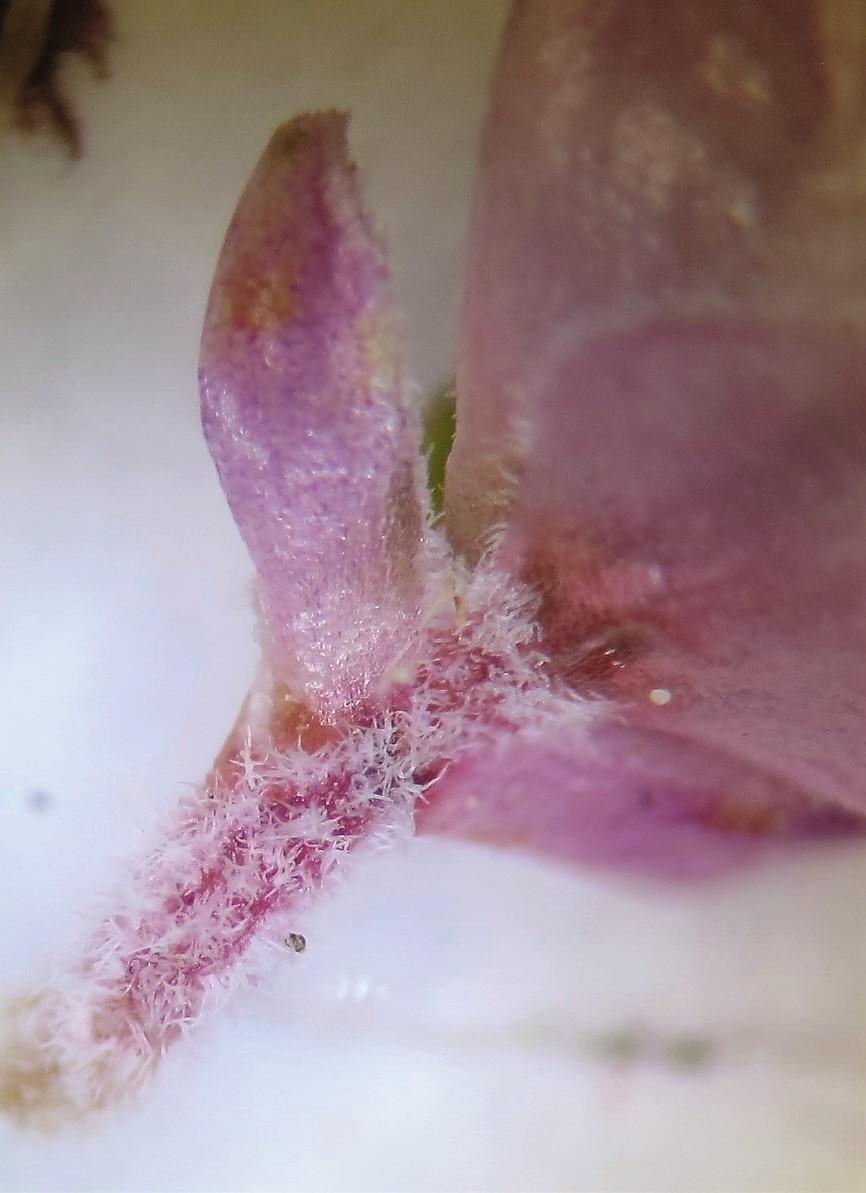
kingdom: Plantae
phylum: Tracheophyta
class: Magnoliopsida
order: Ericales
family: Ericaceae
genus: Erica
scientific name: Erica lucida
